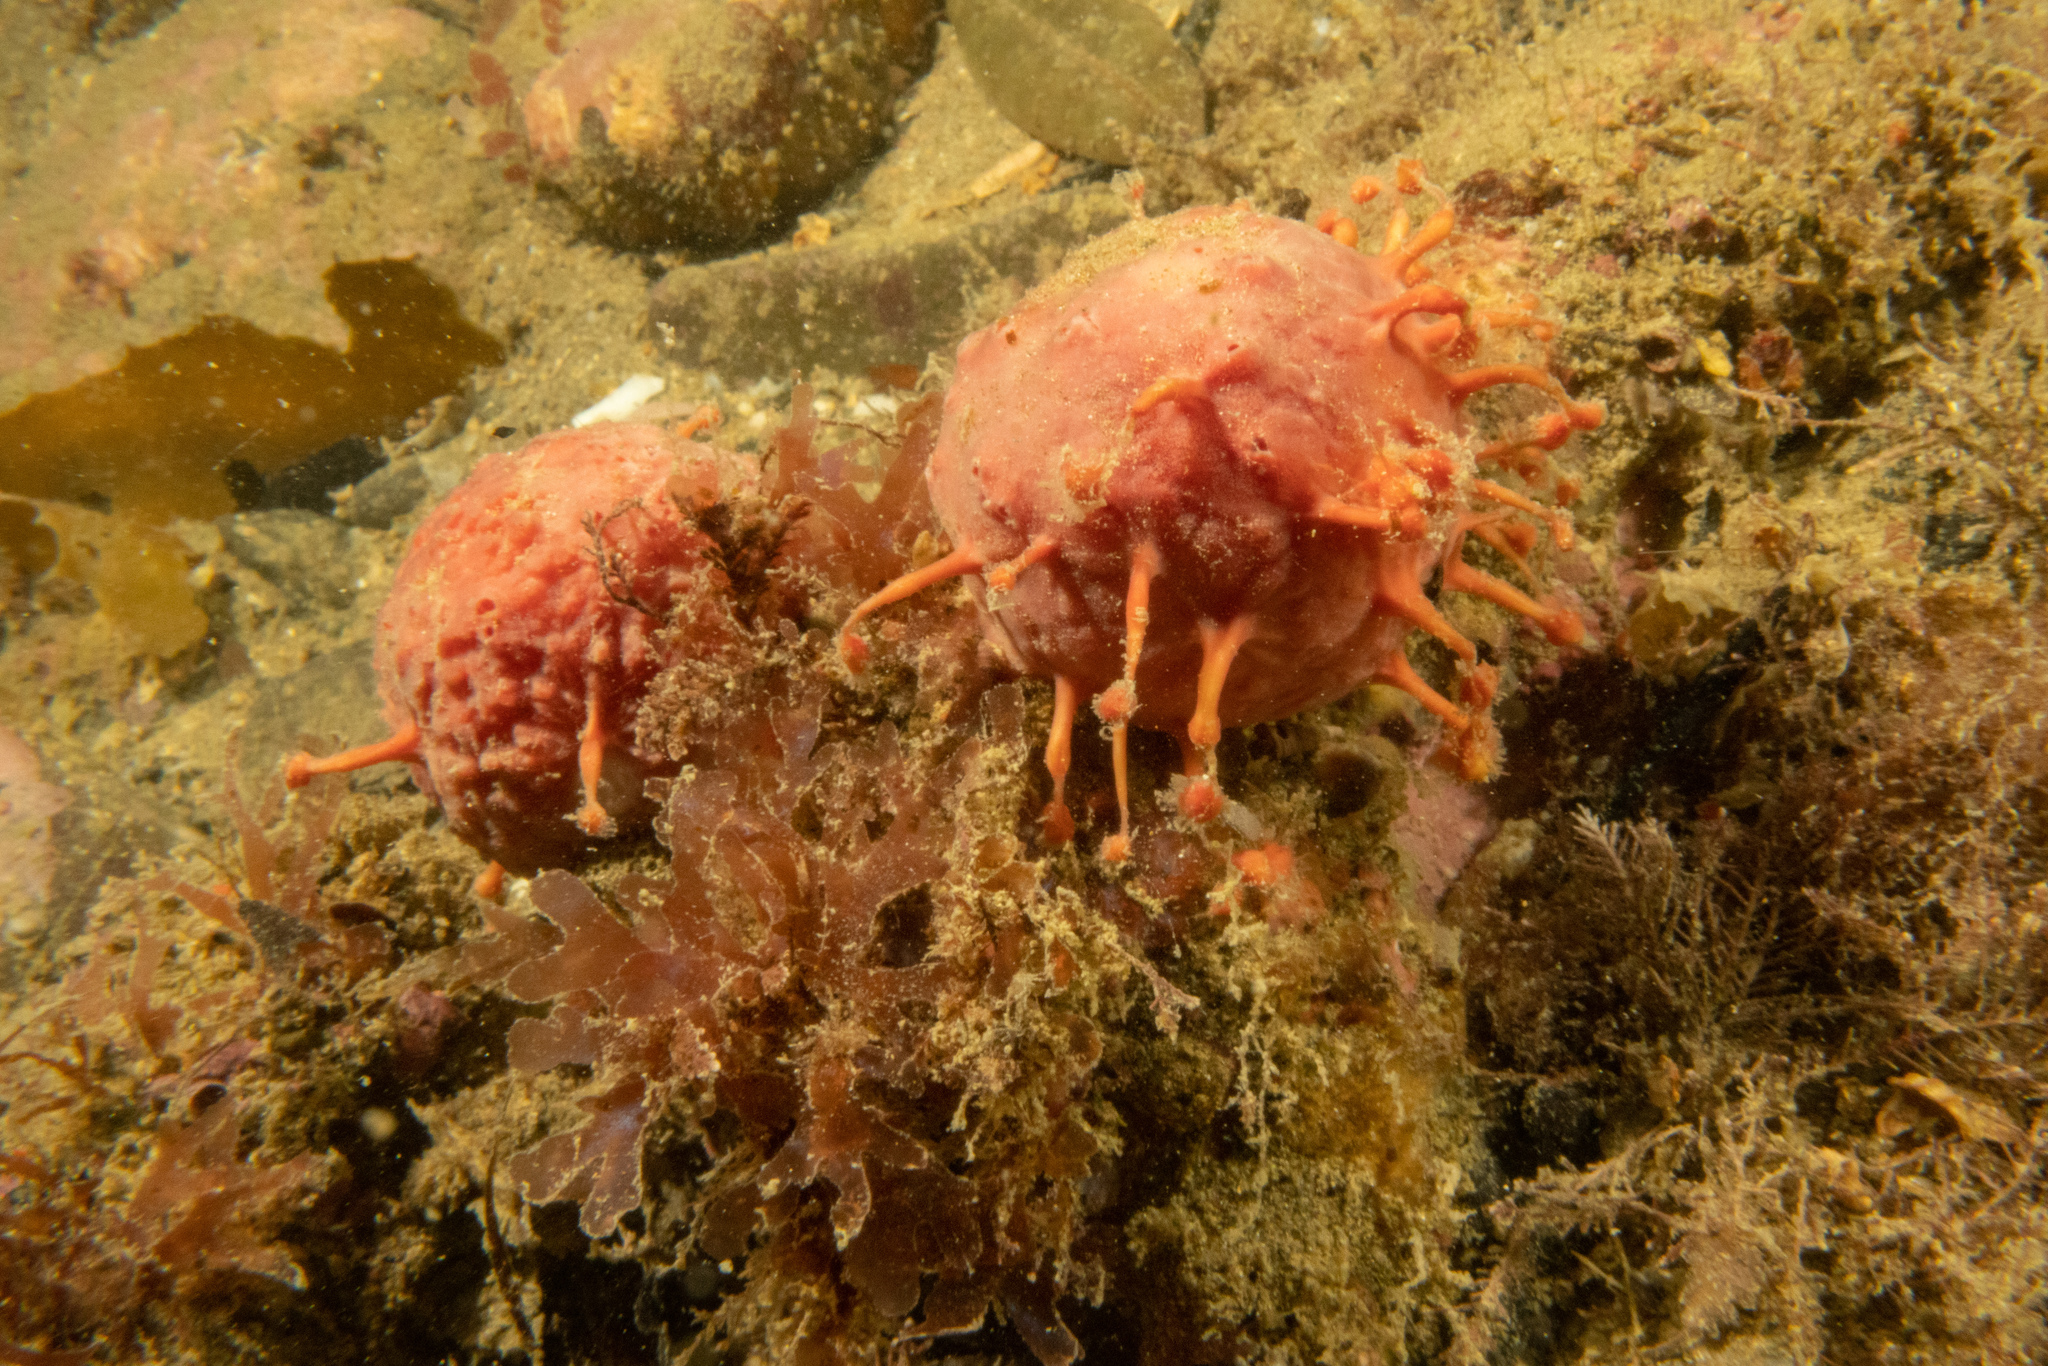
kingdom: Animalia
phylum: Porifera
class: Demospongiae
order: Tethyida
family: Tethyidae
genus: Tethya
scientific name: Tethya bergquistae
